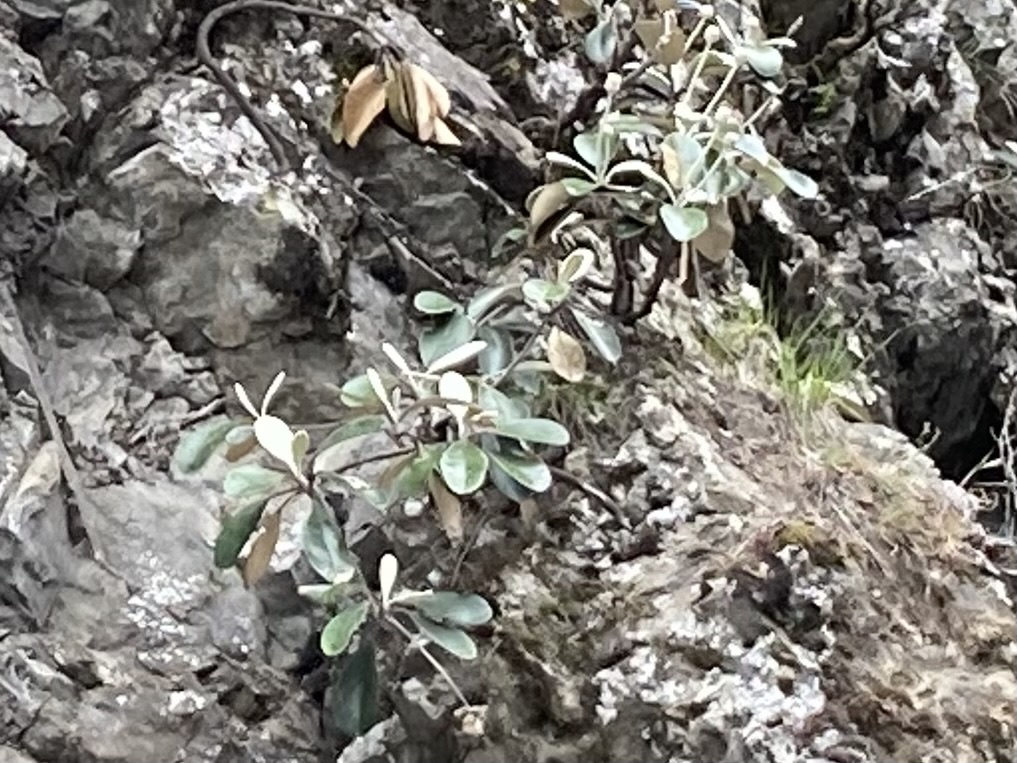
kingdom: Plantae
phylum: Tracheophyta
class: Magnoliopsida
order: Asterales
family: Asteraceae
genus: Pachystegia
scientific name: Pachystegia insignis
